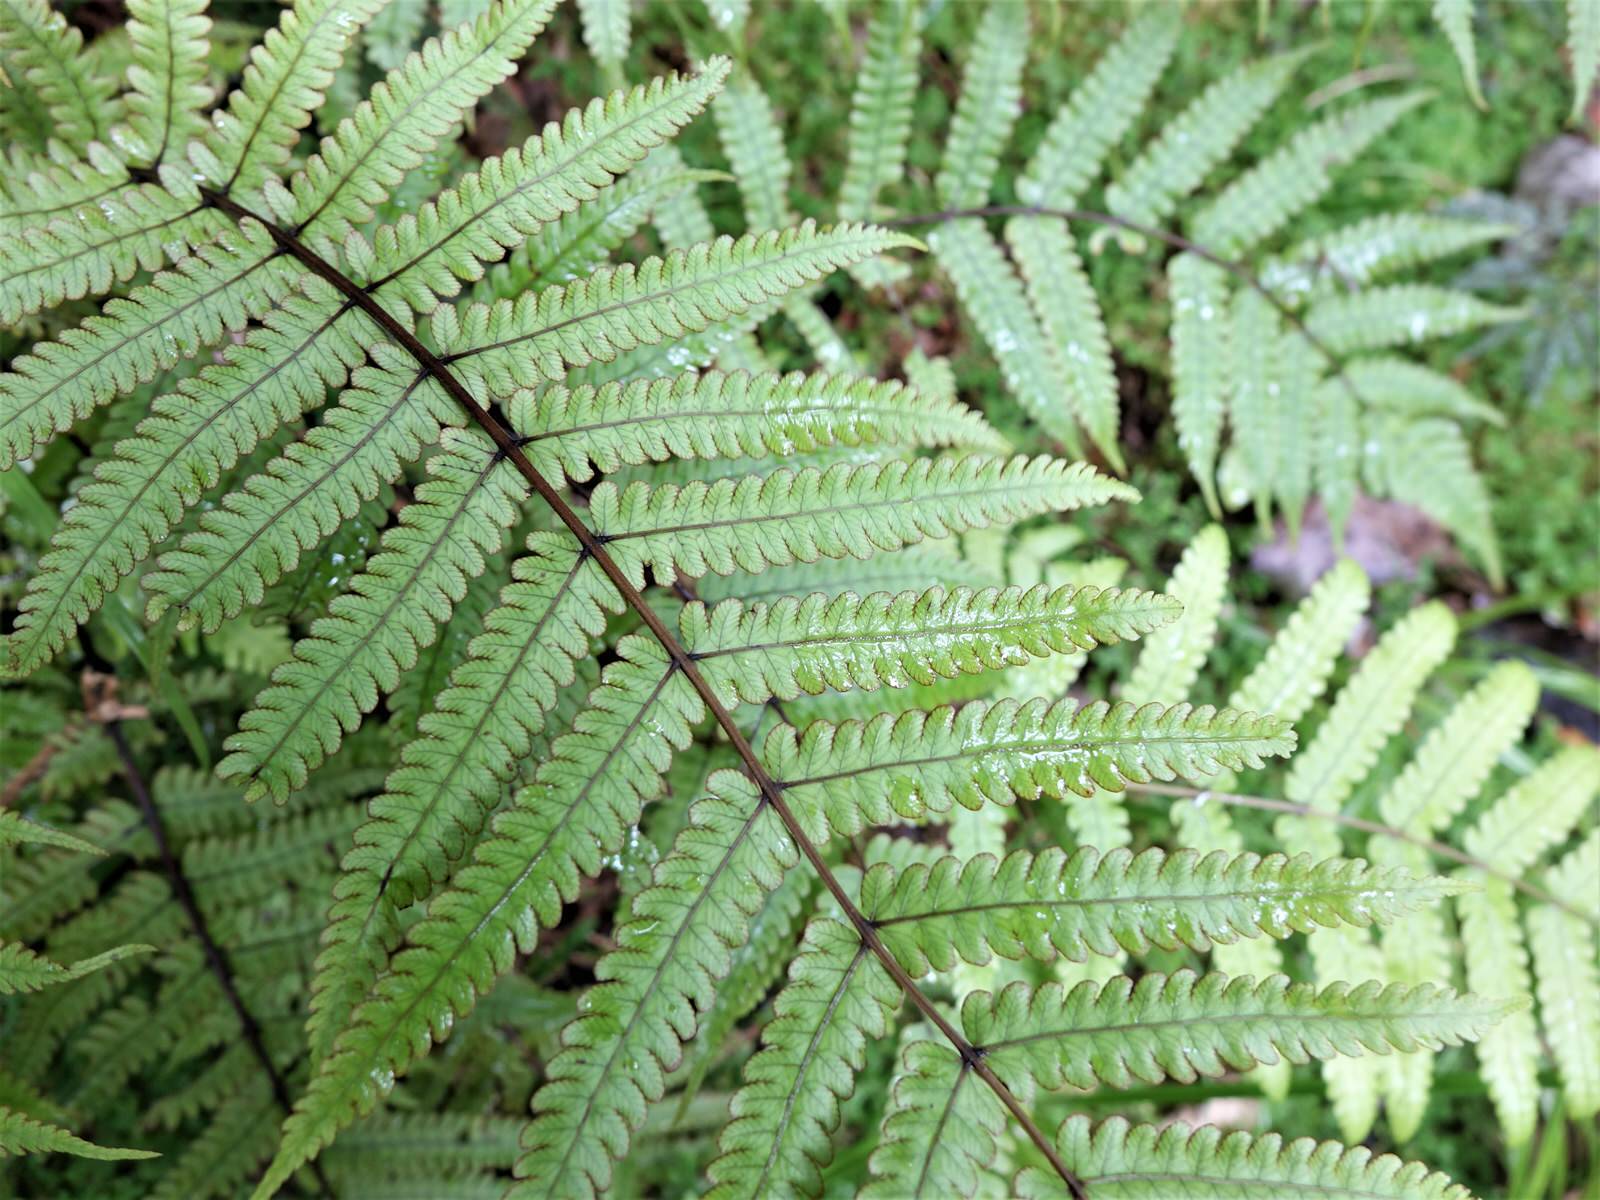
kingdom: Plantae
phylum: Tracheophyta
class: Polypodiopsida
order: Polypodiales
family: Thelypteridaceae
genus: Pakau
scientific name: Pakau pennigera
